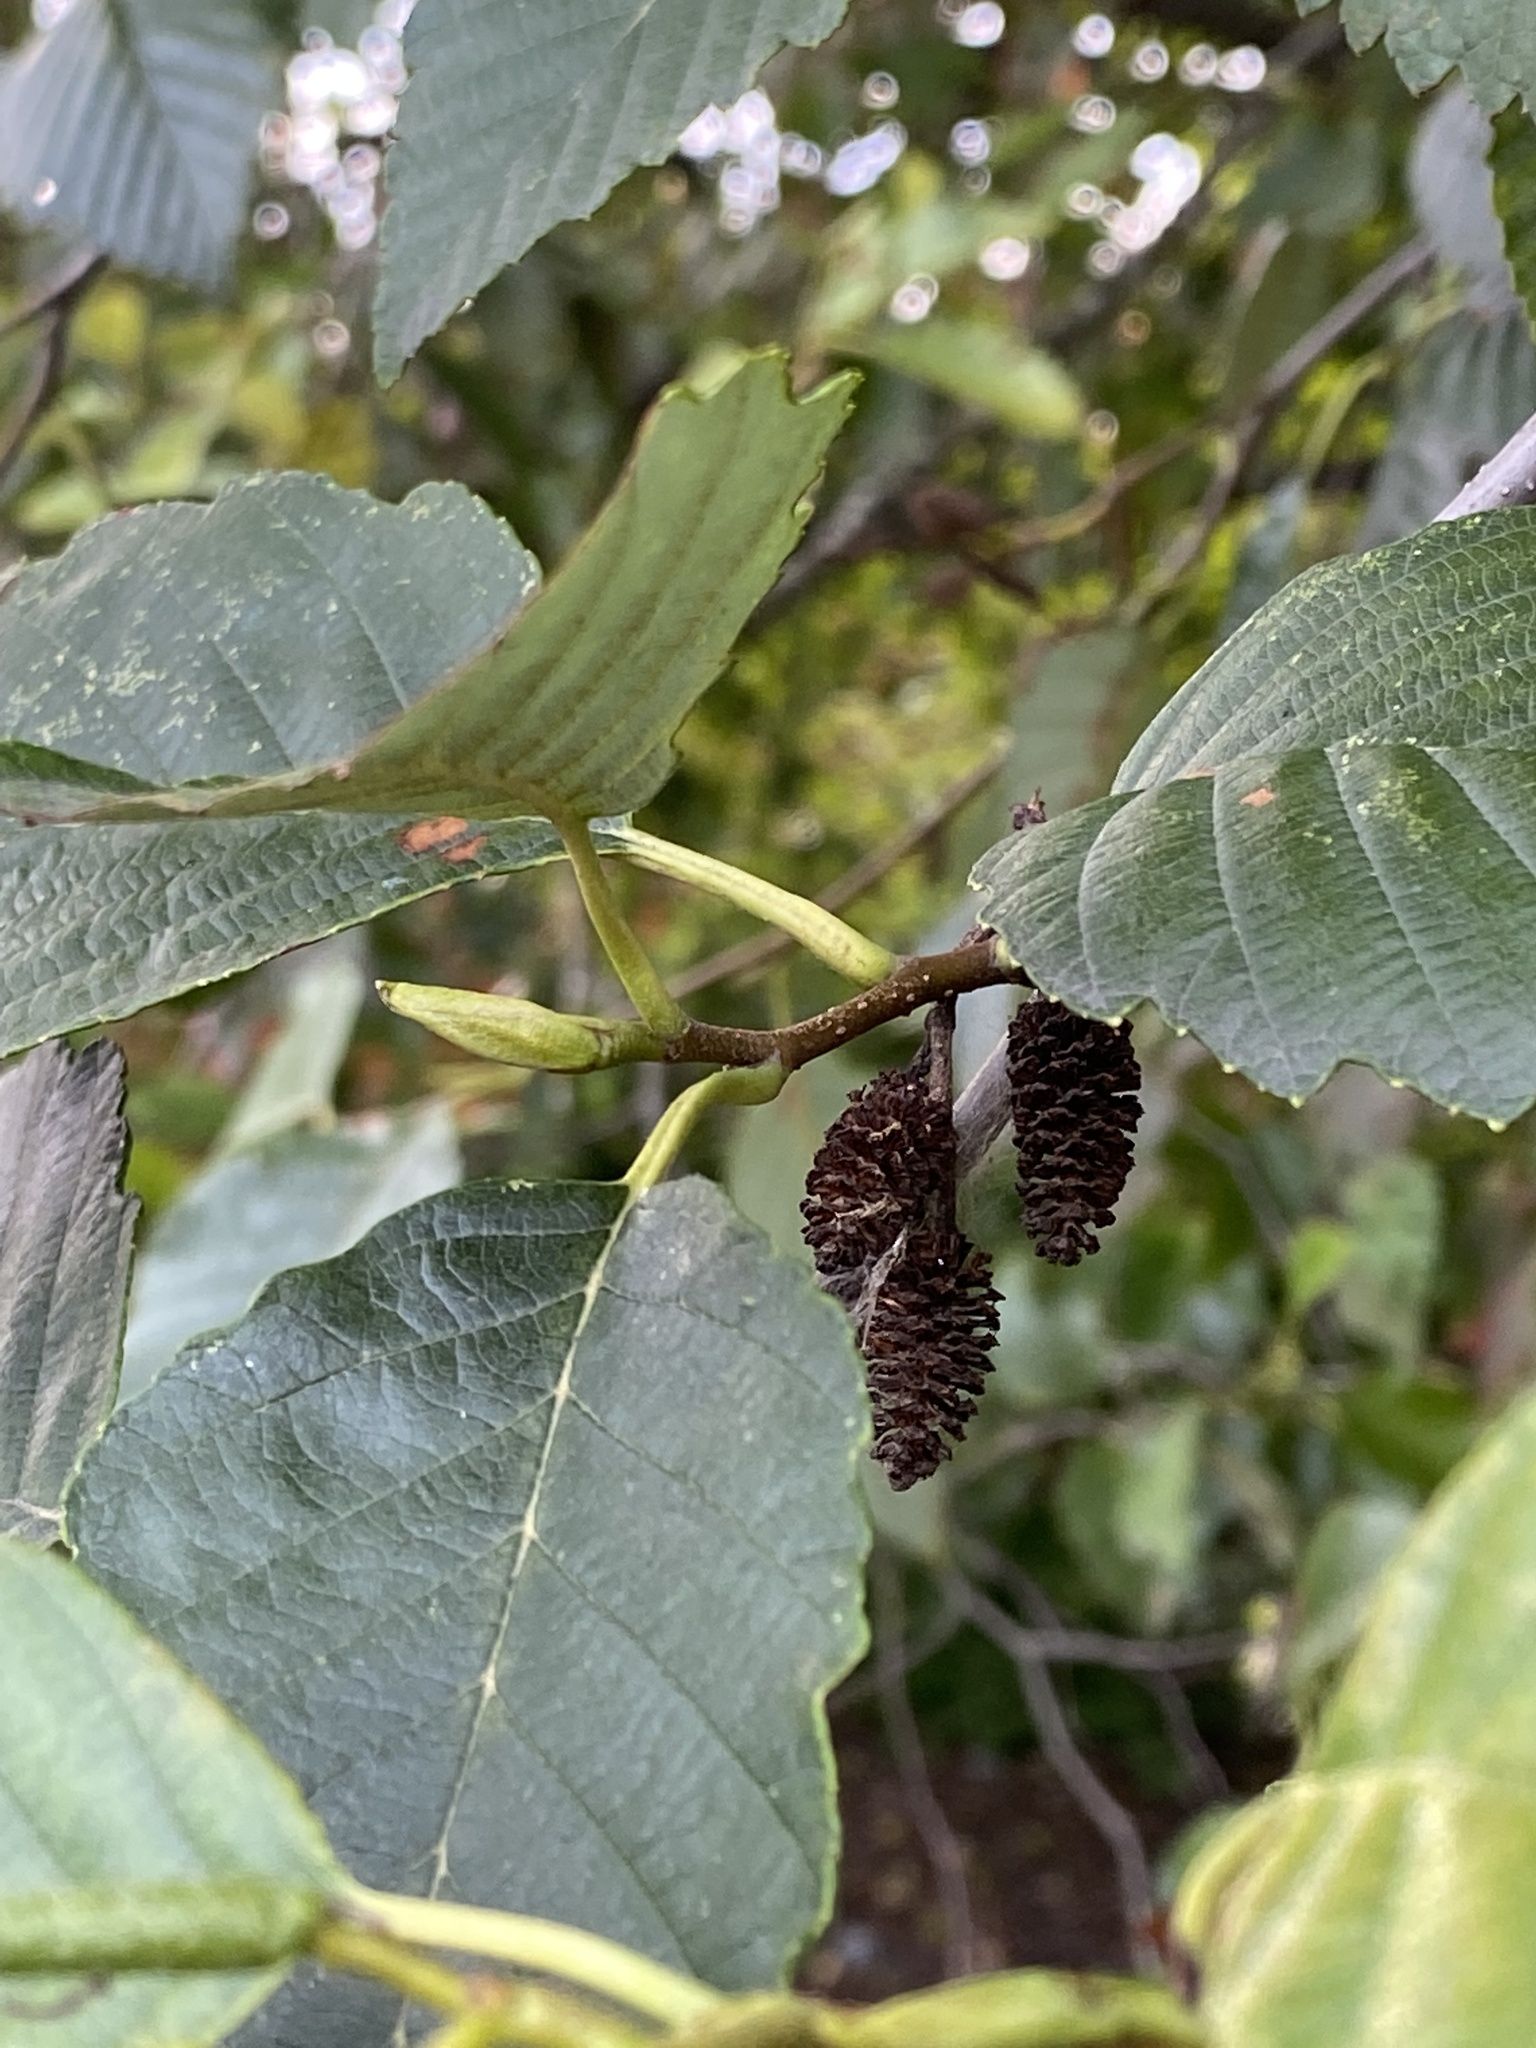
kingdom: Plantae
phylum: Tracheophyta
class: Magnoliopsida
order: Fagales
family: Betulaceae
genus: Alnus
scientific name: Alnus rubra
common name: Red alder
